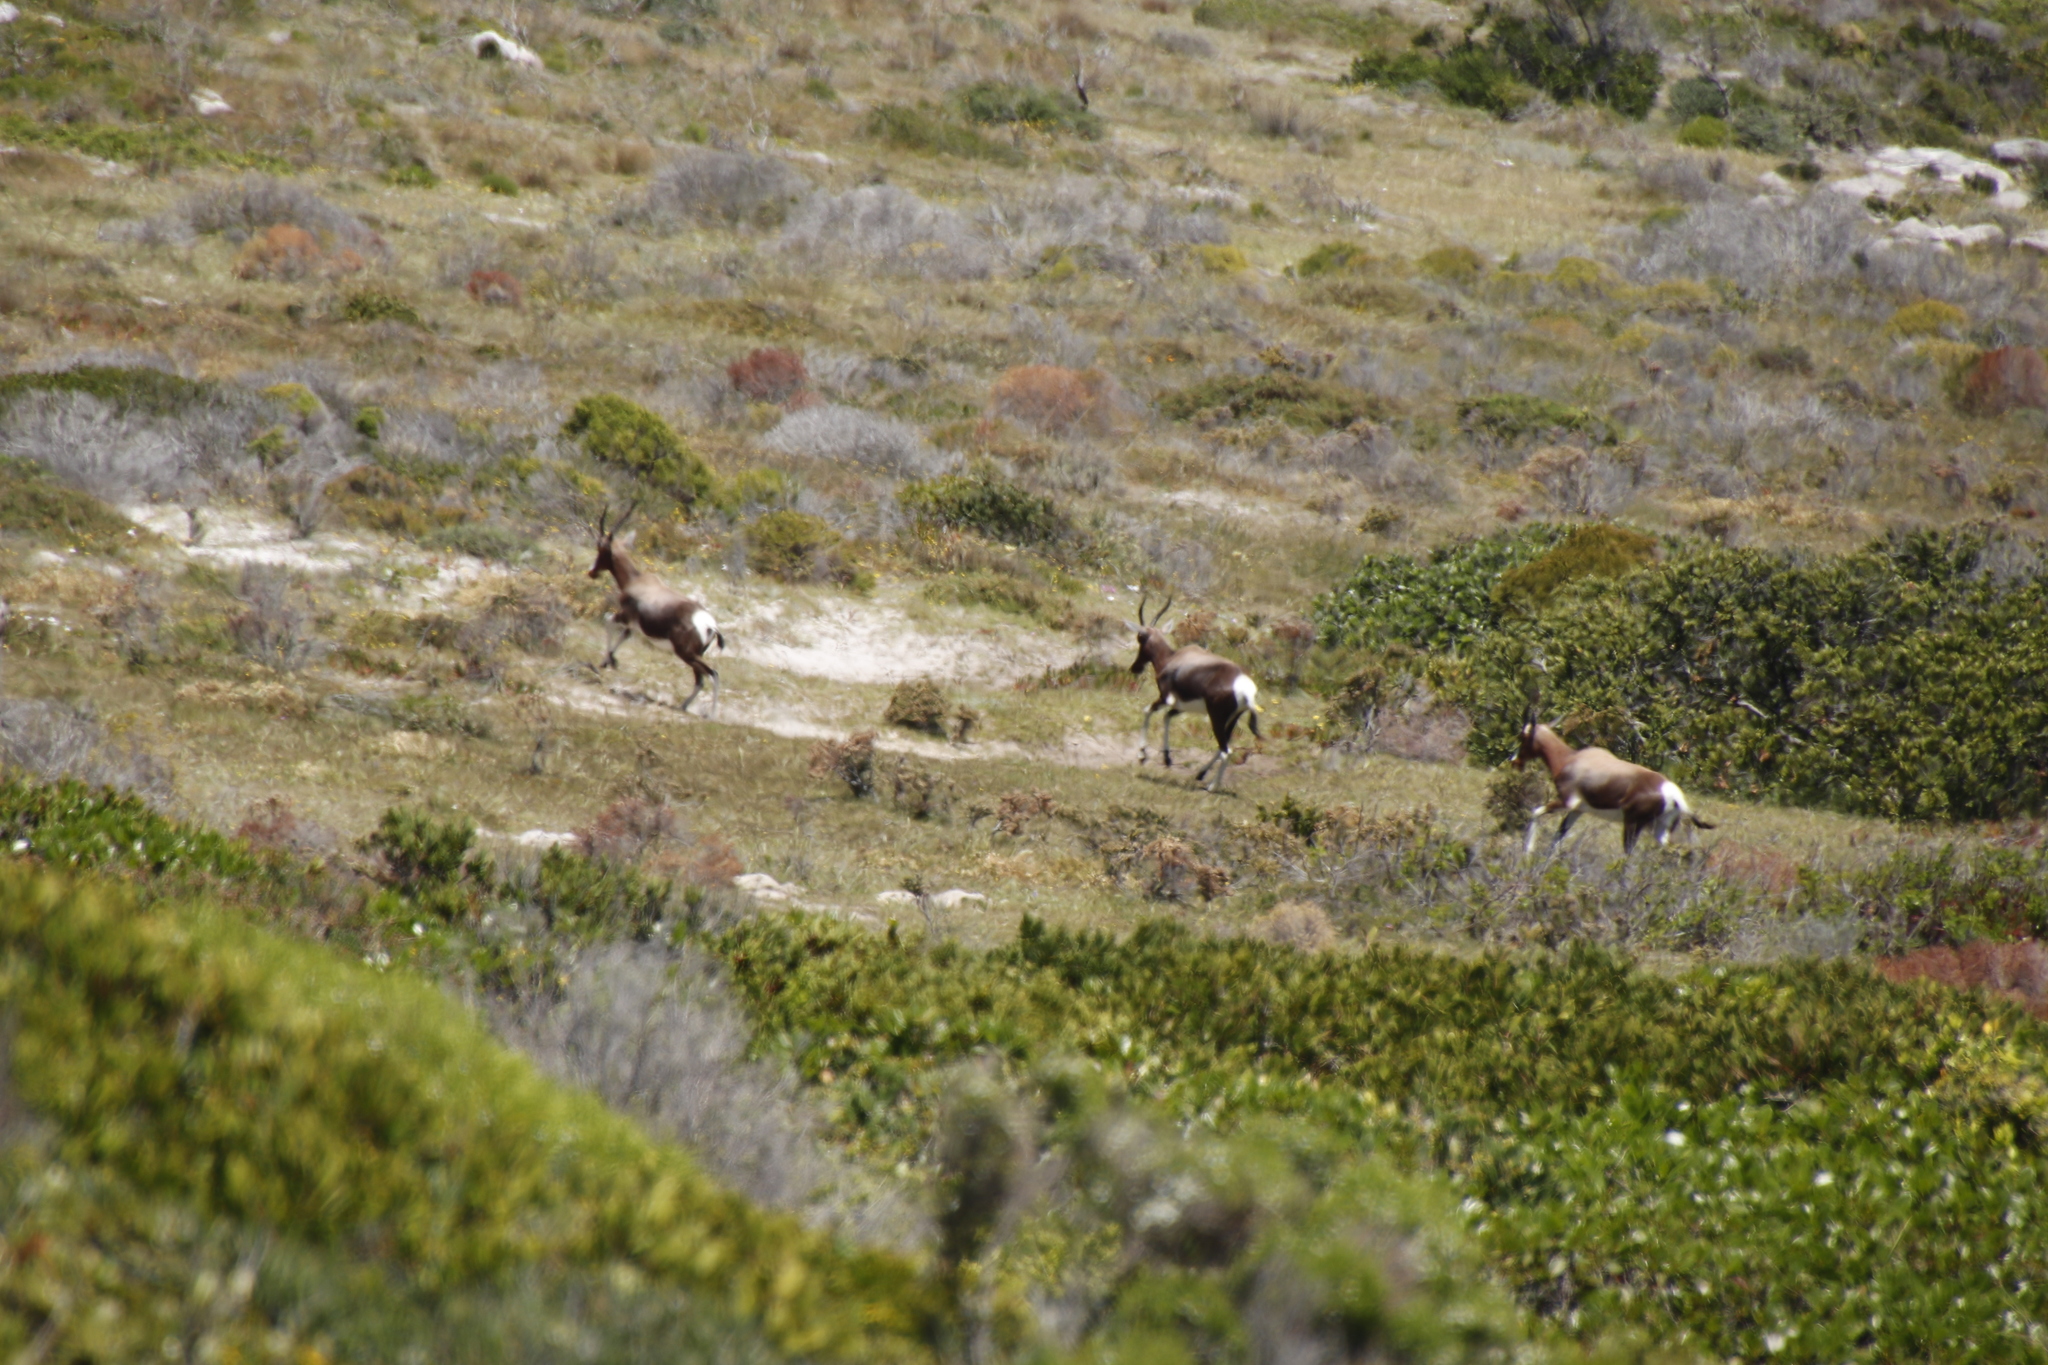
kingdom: Animalia
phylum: Chordata
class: Mammalia
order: Artiodactyla
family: Bovidae
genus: Damaliscus
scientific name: Damaliscus pygargus
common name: Bontebok
